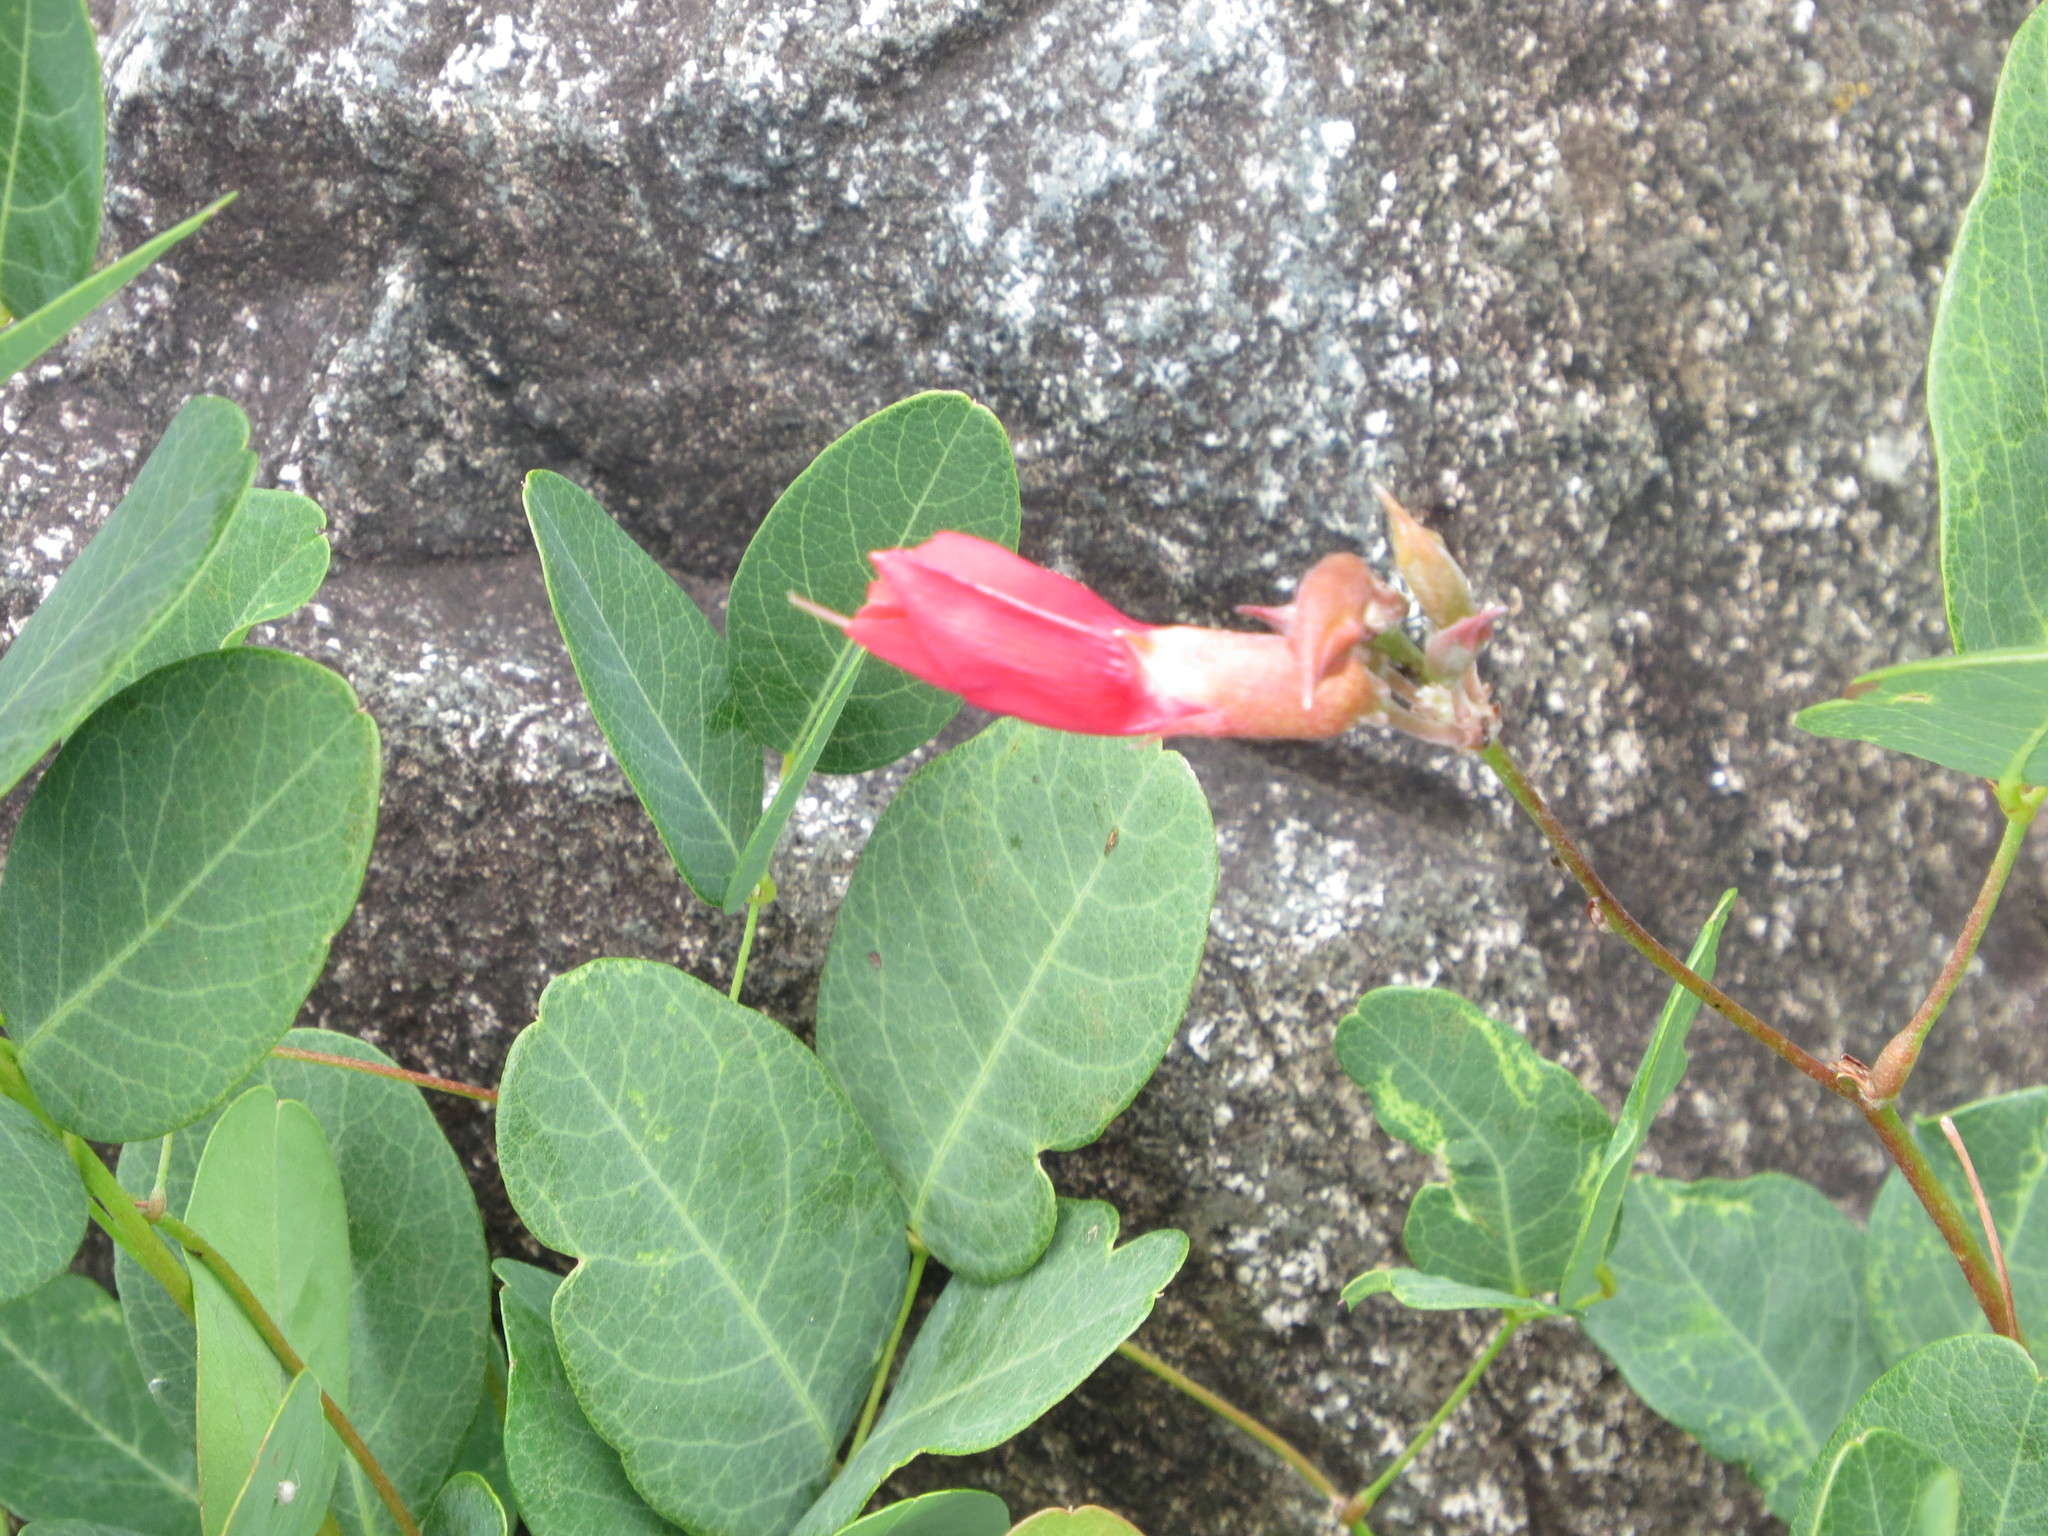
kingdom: Plantae
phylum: Tracheophyta
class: Magnoliopsida
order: Fabales
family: Fabaceae
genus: Camptosema
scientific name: Camptosema rubicundum
